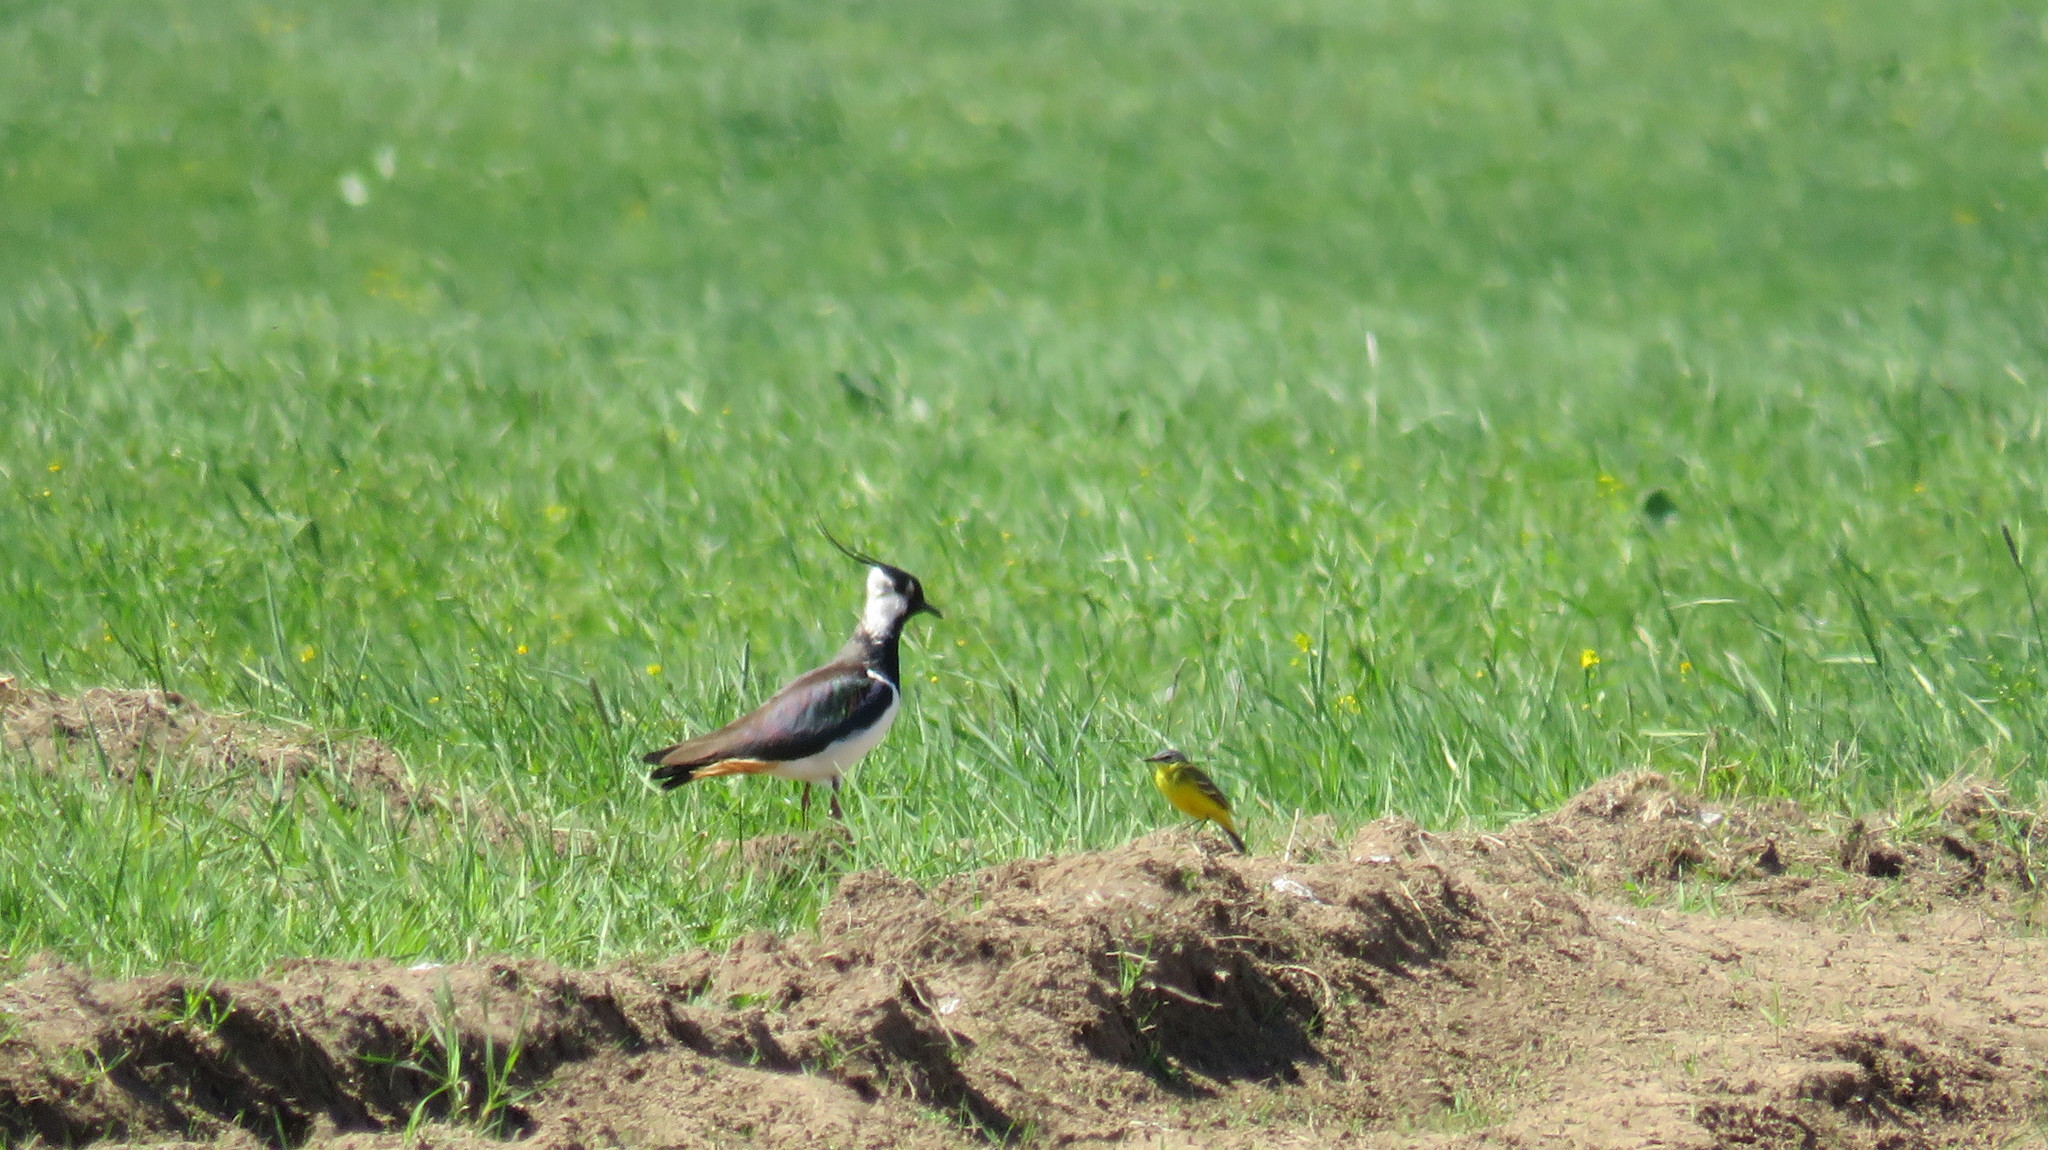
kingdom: Animalia
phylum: Chordata
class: Aves
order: Charadriiformes
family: Charadriidae
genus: Vanellus
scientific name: Vanellus vanellus
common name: Northern lapwing
